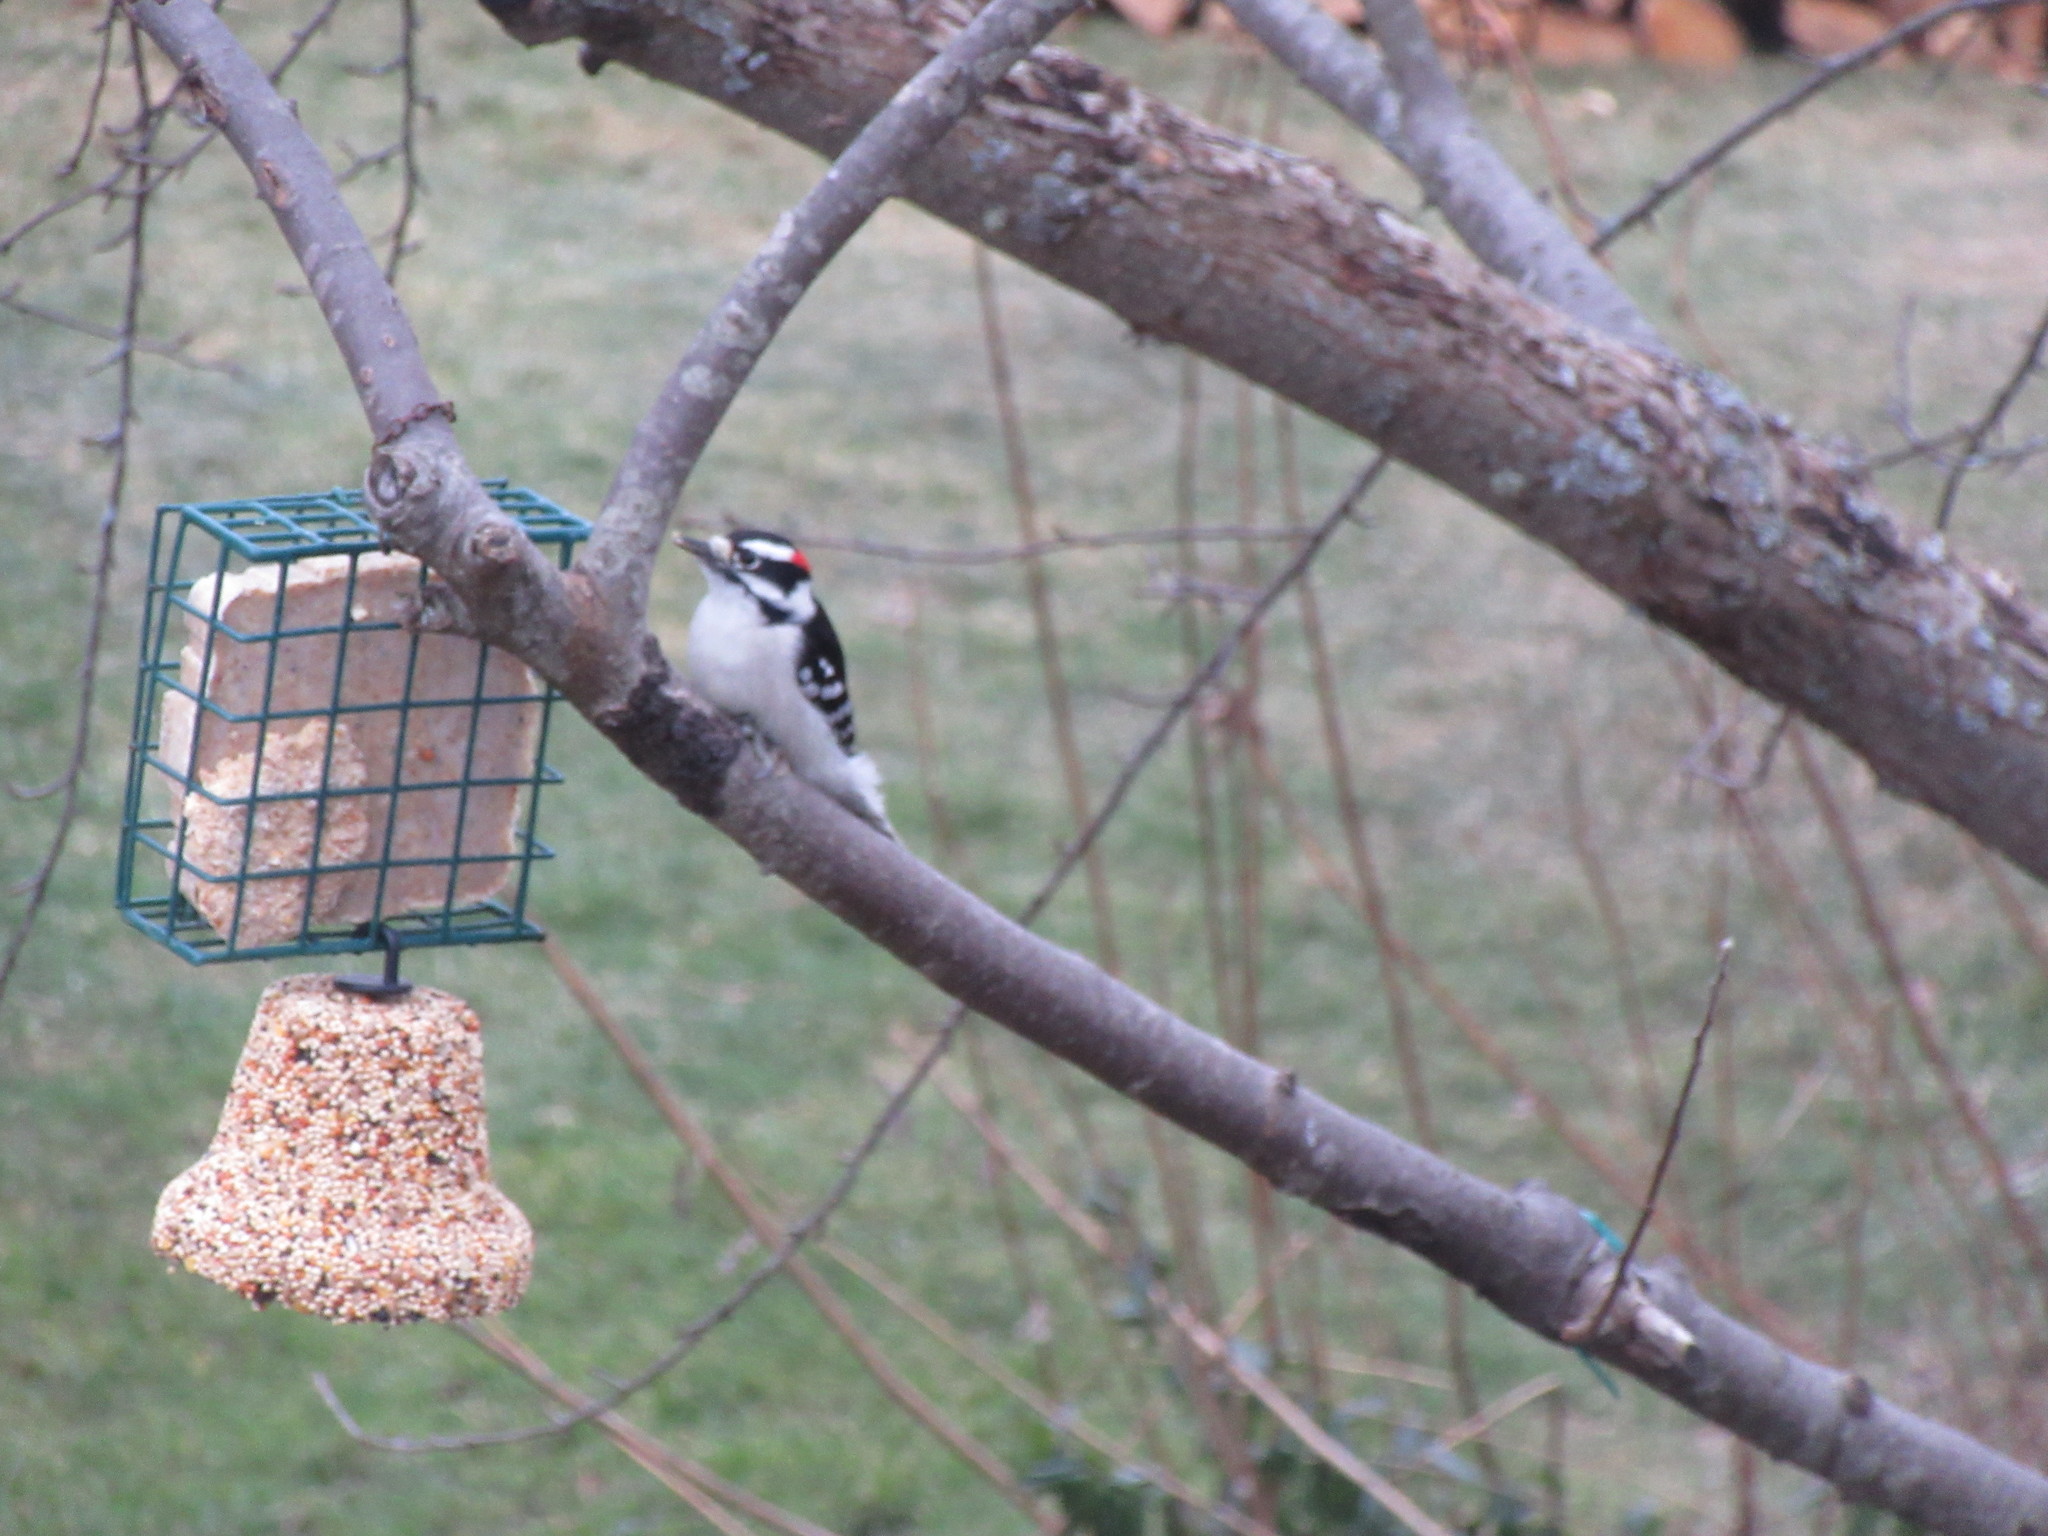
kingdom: Animalia
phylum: Chordata
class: Aves
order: Piciformes
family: Picidae
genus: Dryobates
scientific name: Dryobates pubescens
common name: Downy woodpecker
